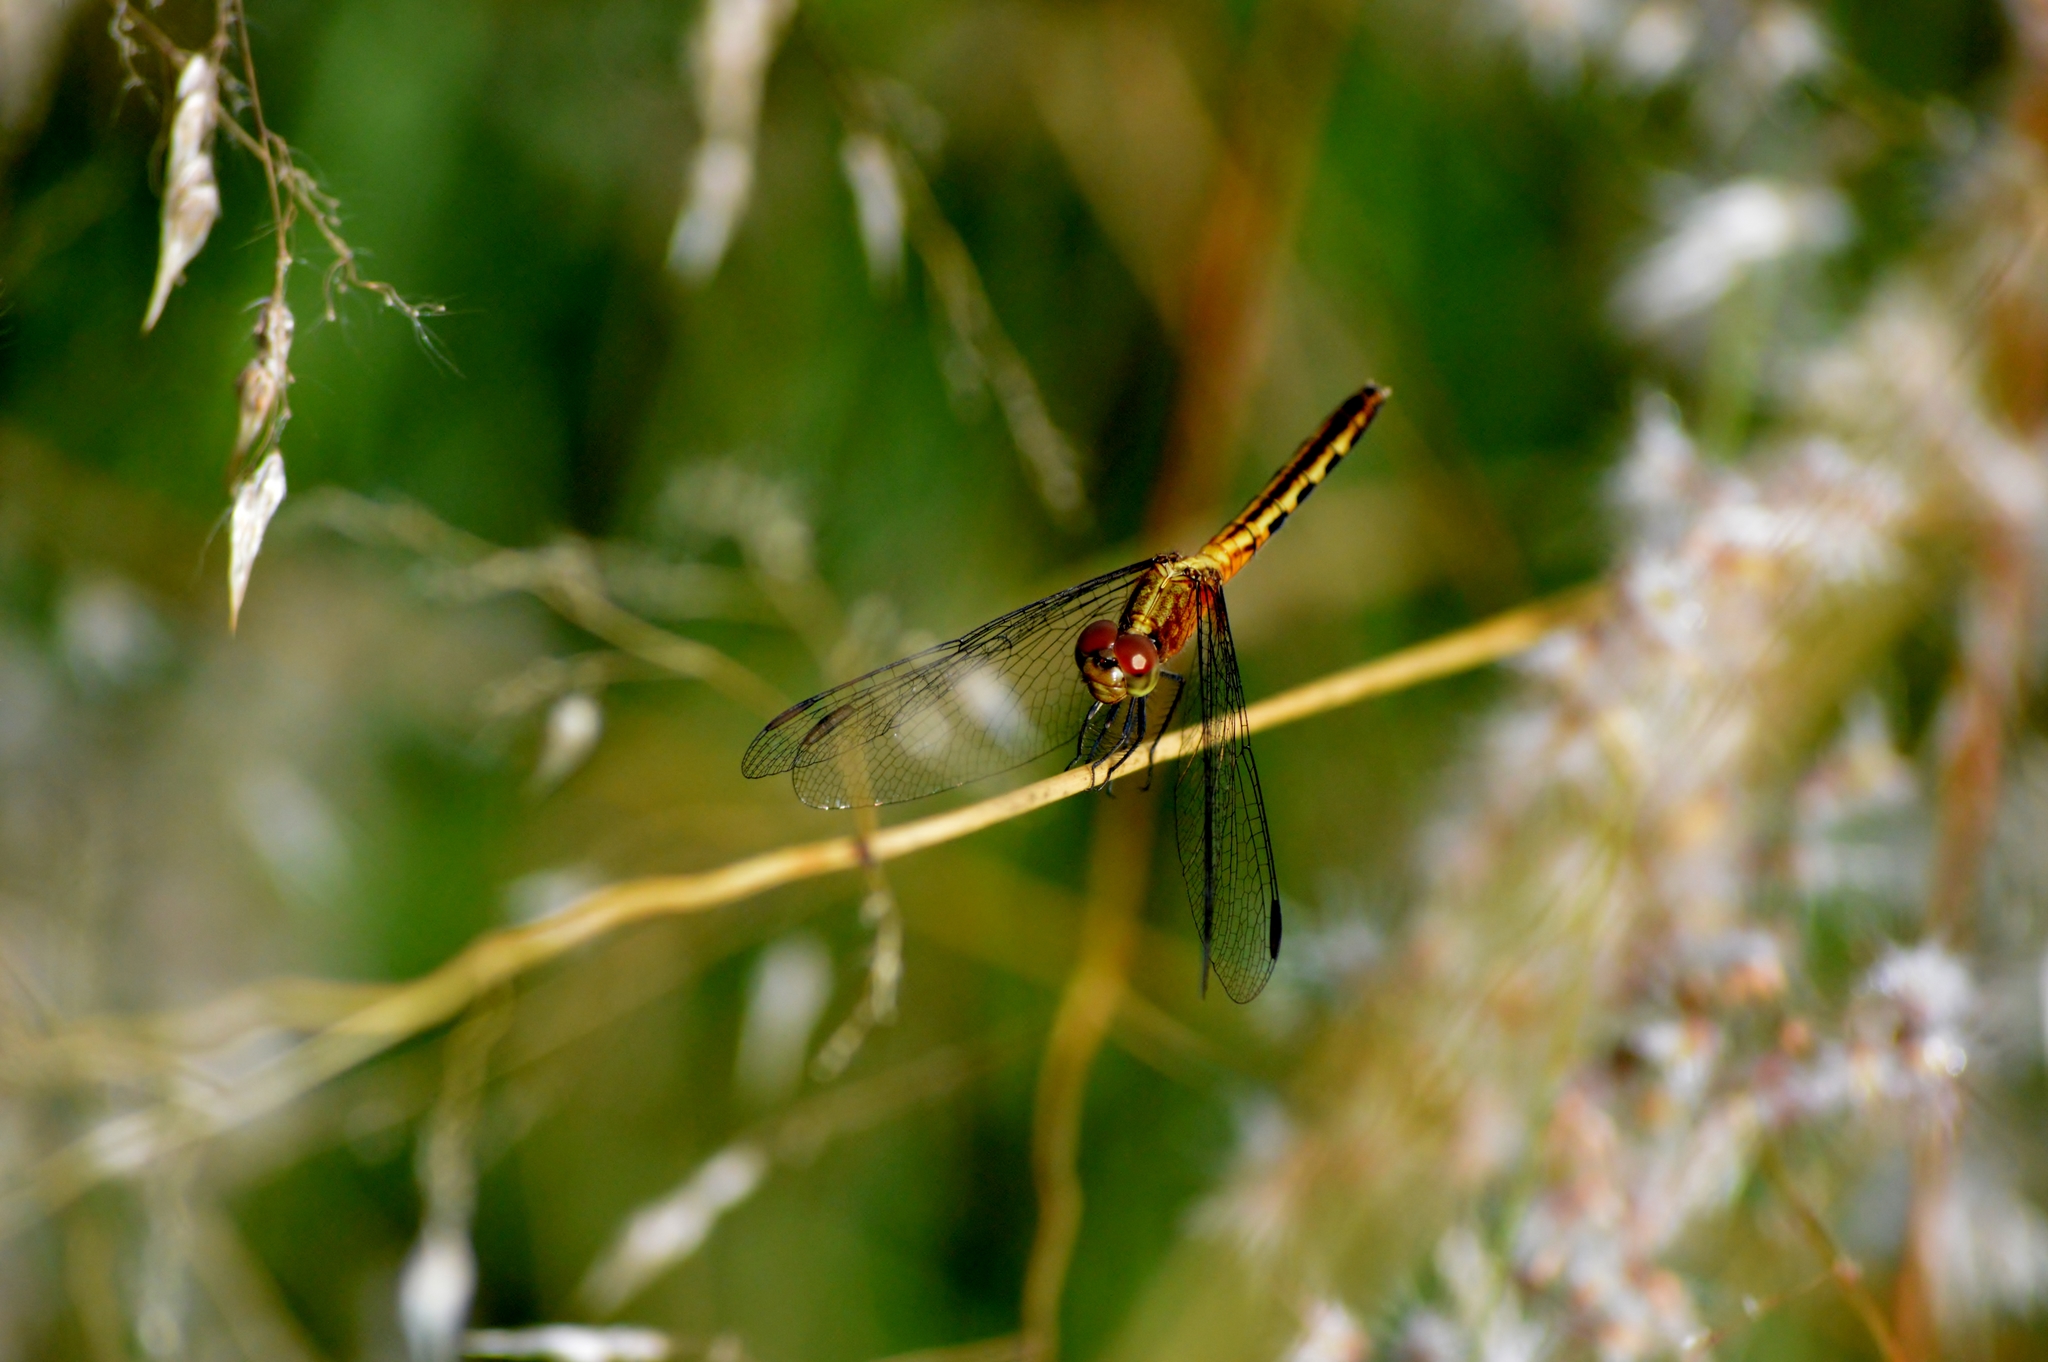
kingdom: Animalia
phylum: Arthropoda
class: Insecta
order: Odonata
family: Libellulidae
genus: Erythrodiplax
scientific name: Erythrodiplax avittata
